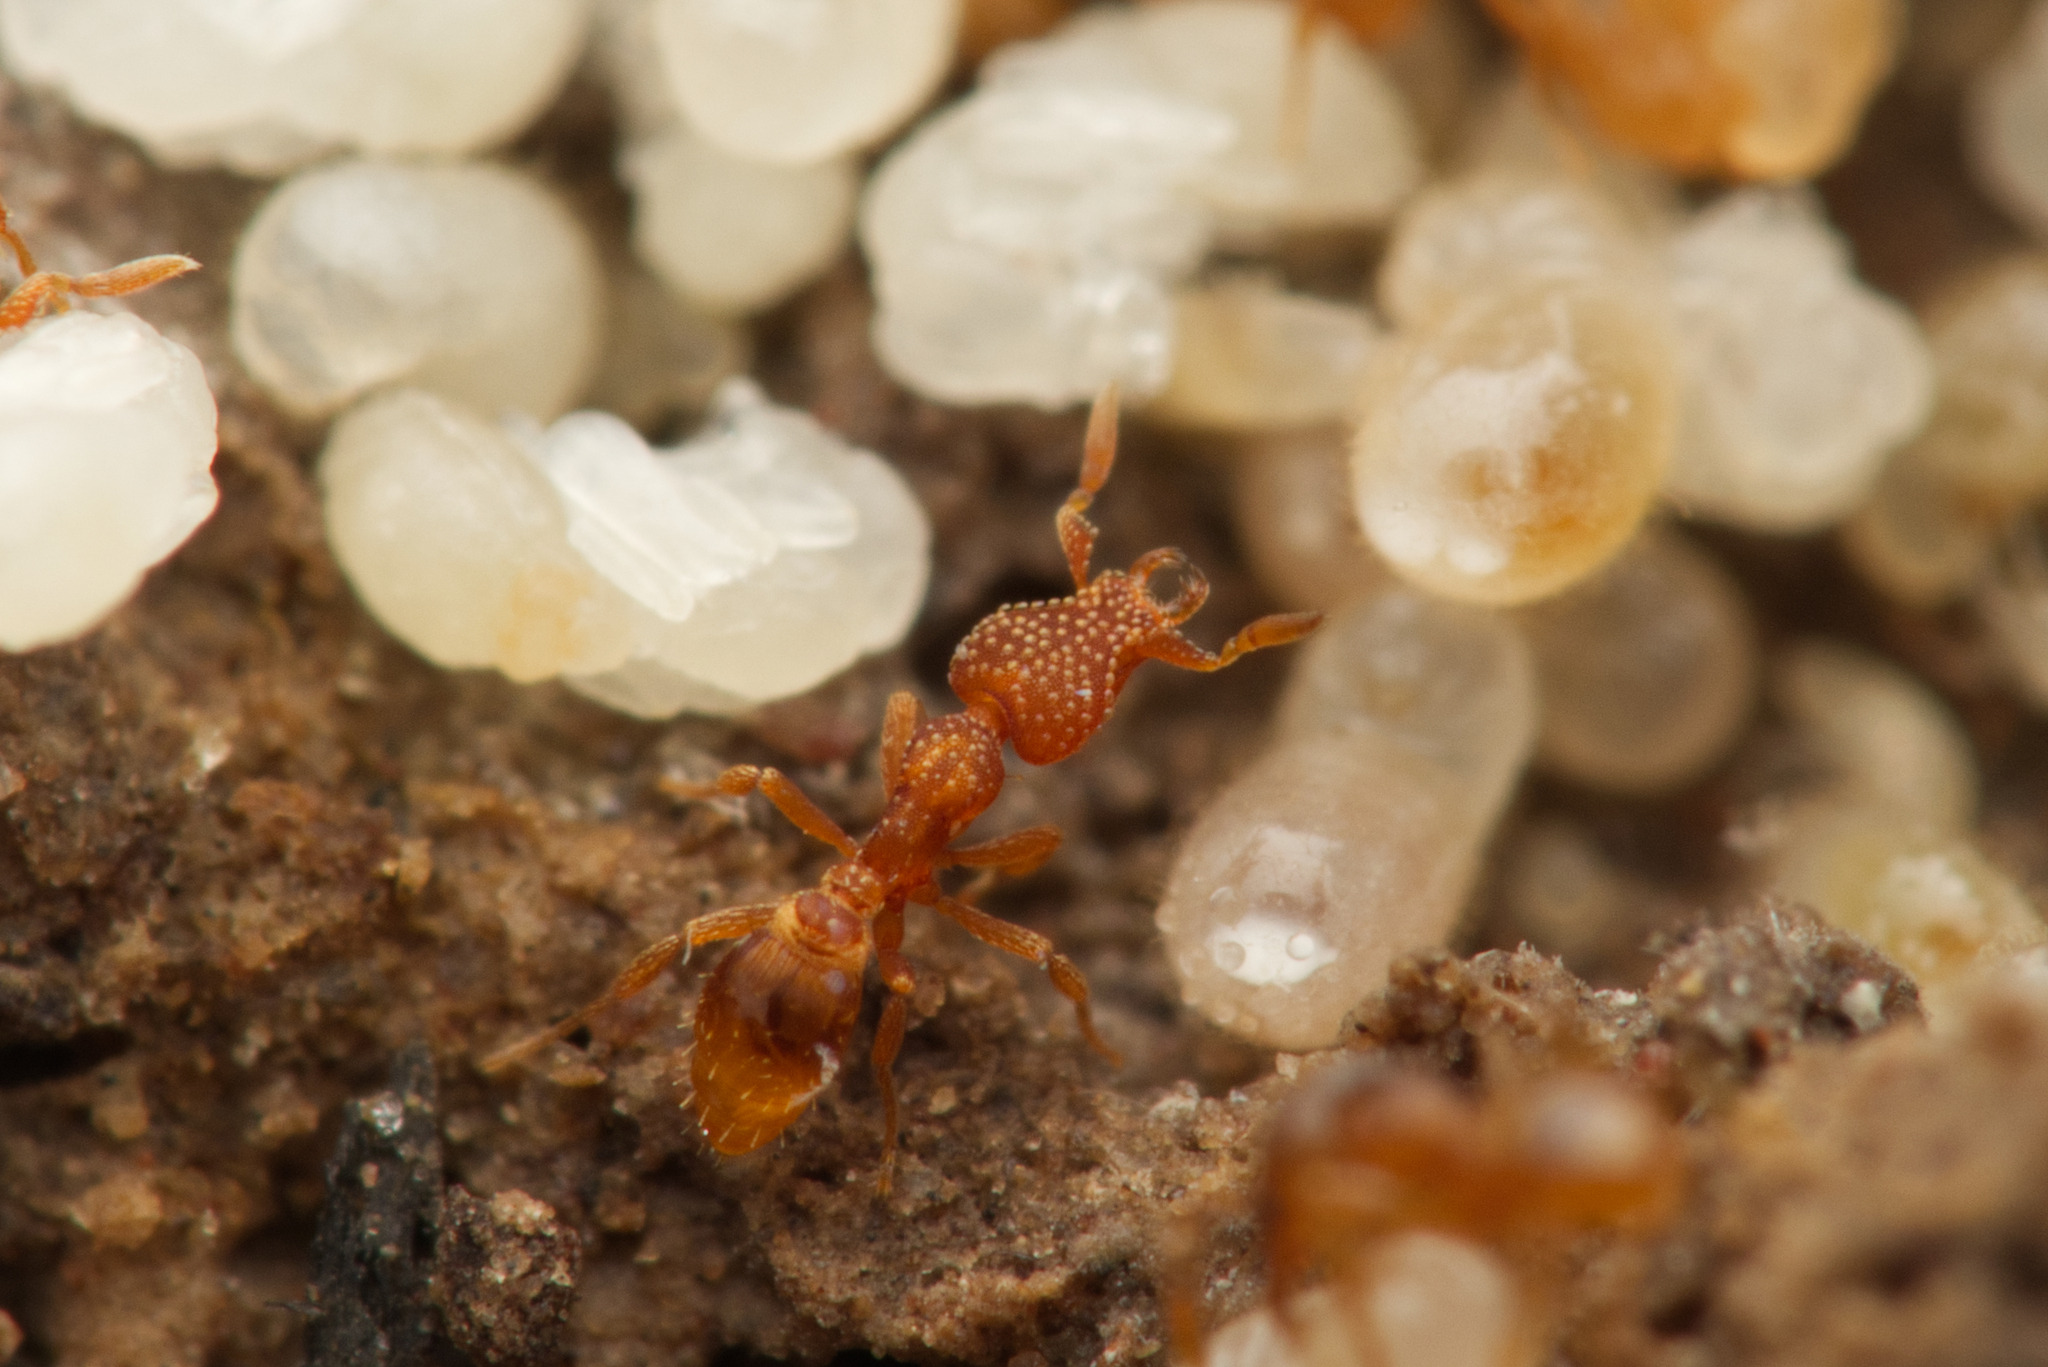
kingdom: Animalia
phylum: Arthropoda
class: Insecta
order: Hymenoptera
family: Formicidae
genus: Pyramica
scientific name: Pyramica emmae
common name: Ant
